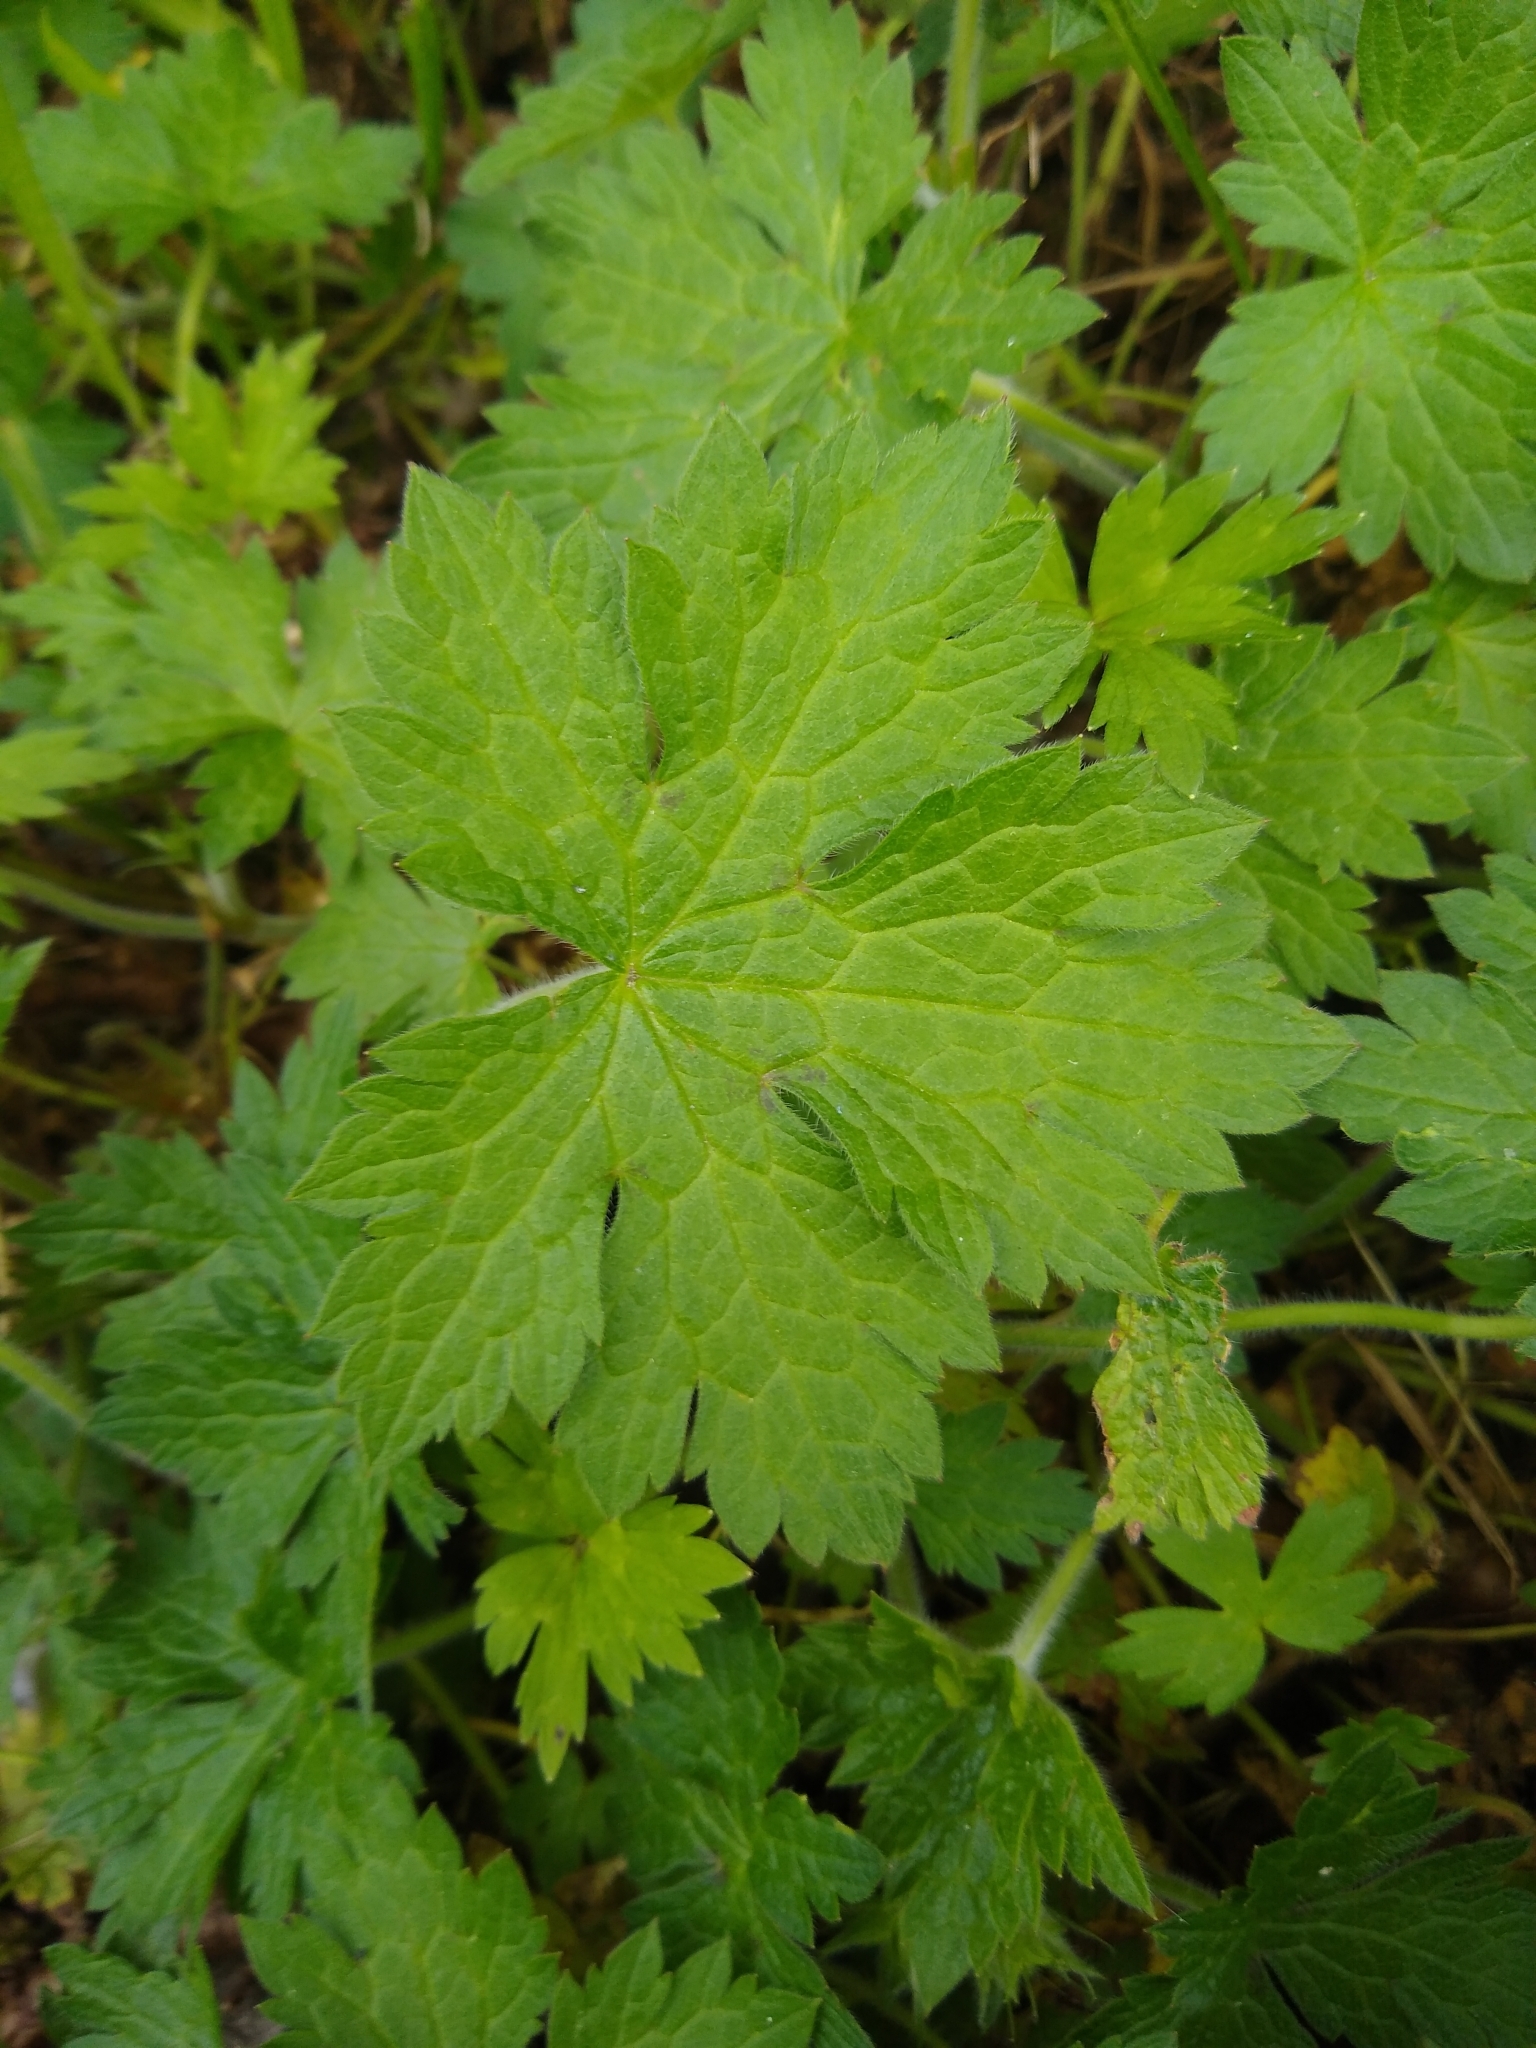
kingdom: Plantae
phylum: Tracheophyta
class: Magnoliopsida
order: Geraniales
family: Geraniaceae
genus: Geranium
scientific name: Geranium oxonianum
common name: Druce's crane's-bill
